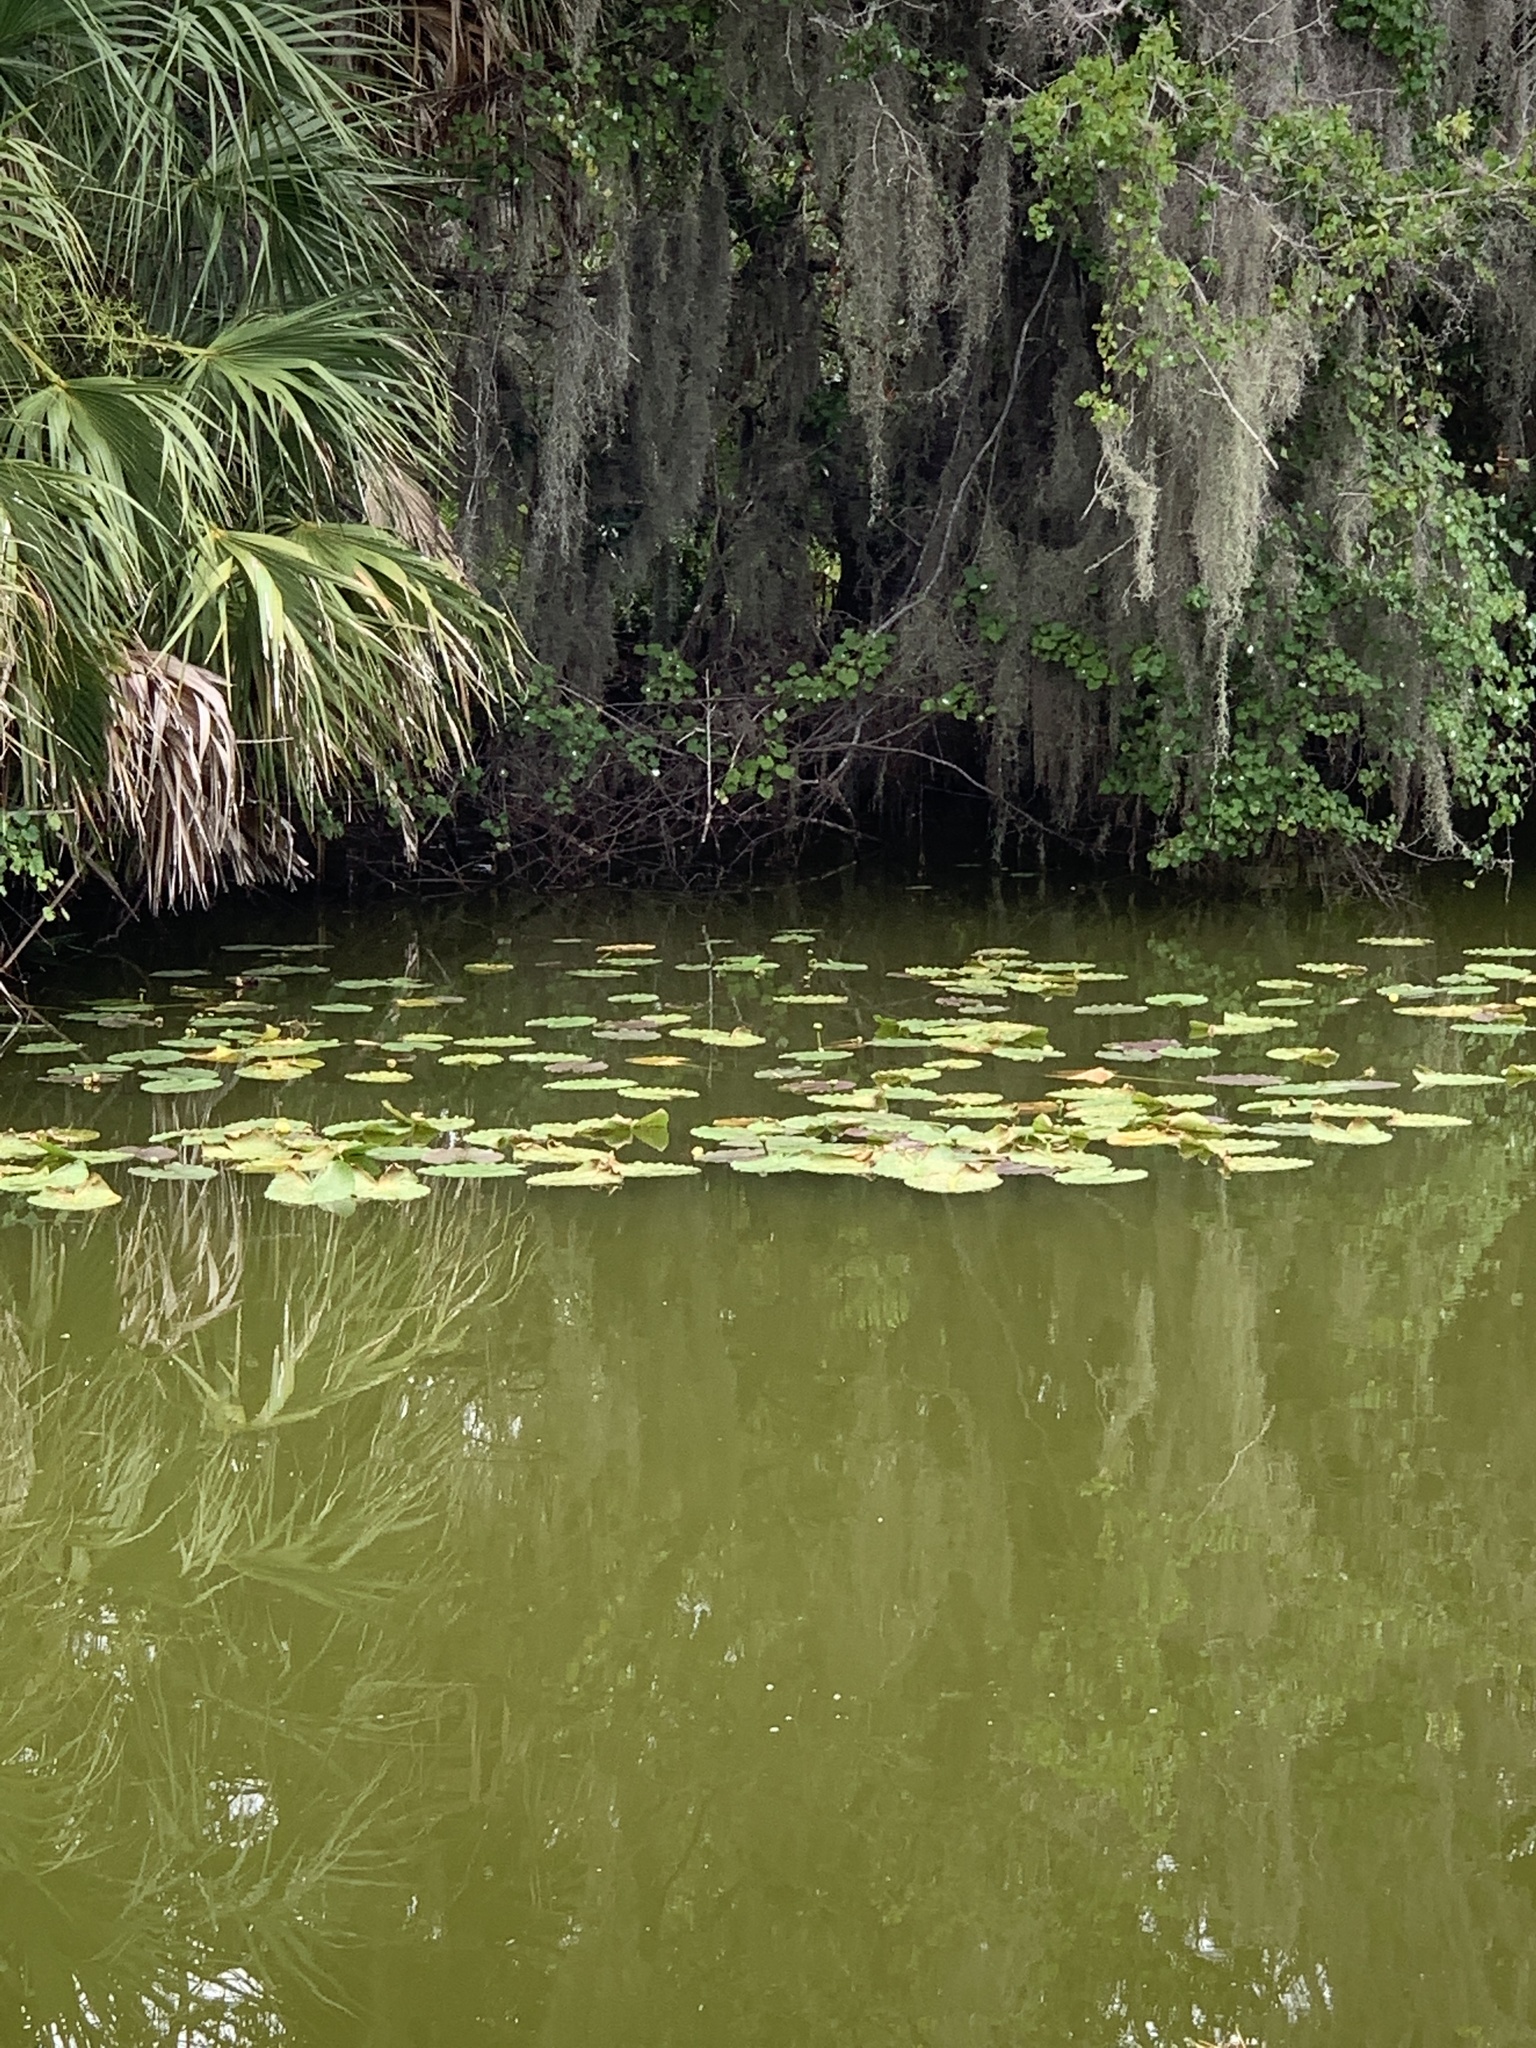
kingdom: Plantae
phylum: Tracheophyta
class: Magnoliopsida
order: Nymphaeales
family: Nymphaeaceae
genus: Nuphar
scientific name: Nuphar advena
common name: Spatter-dock
